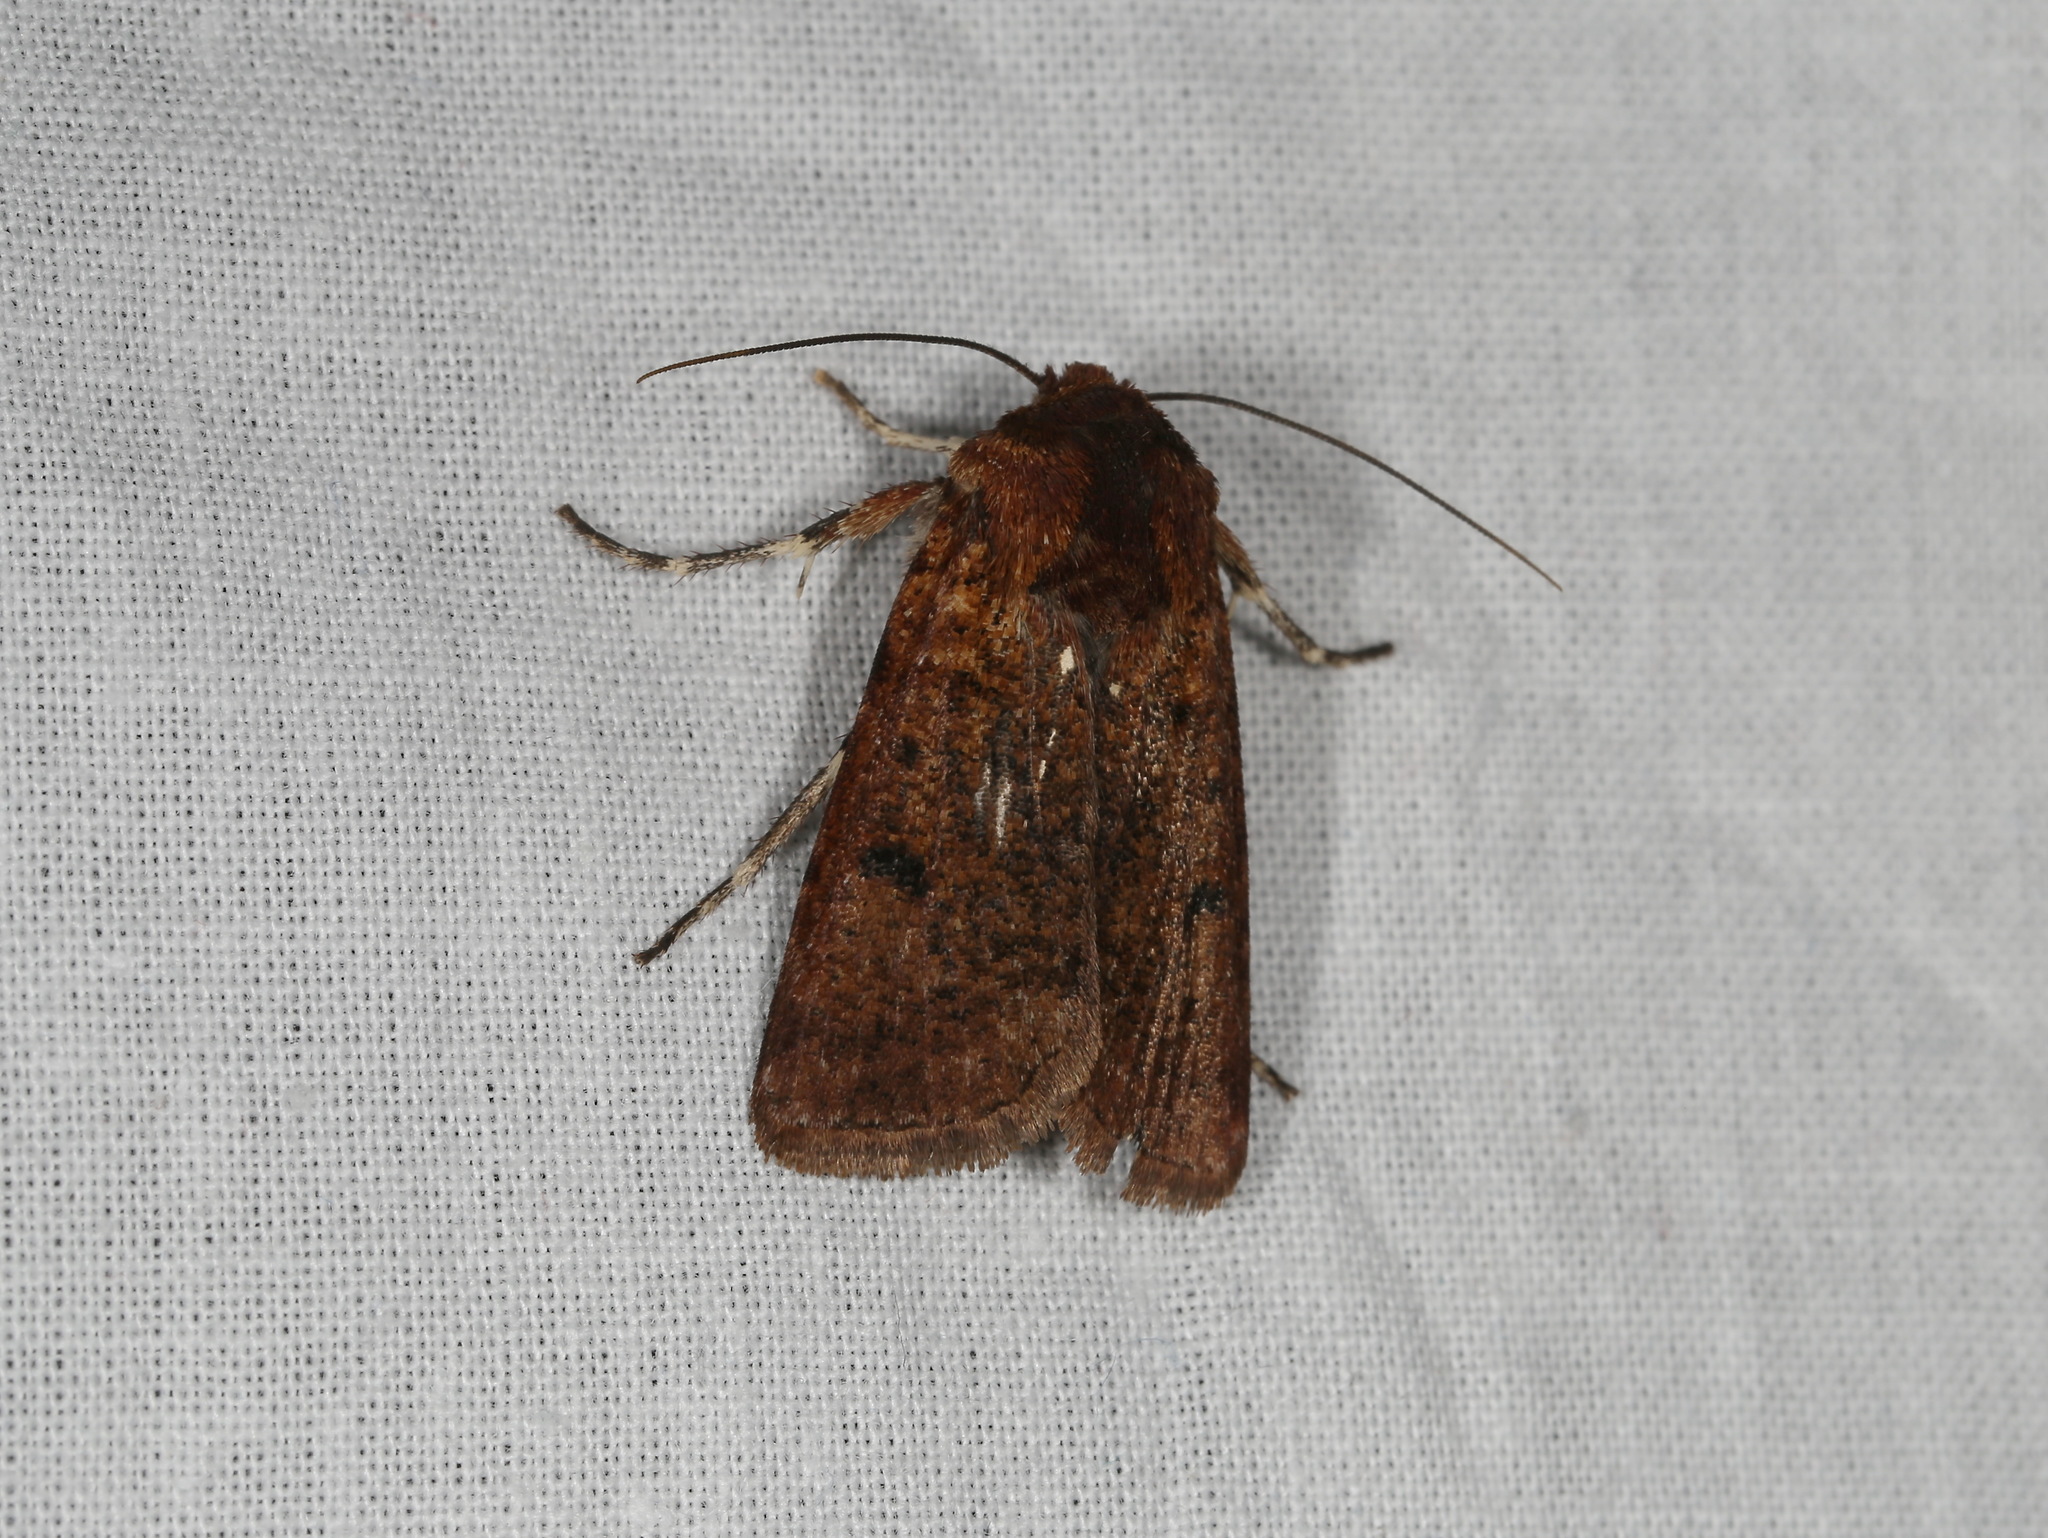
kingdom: Animalia
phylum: Arthropoda
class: Insecta
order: Lepidoptera
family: Noctuidae
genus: Agrotis
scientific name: Agrotis porphyricollis
